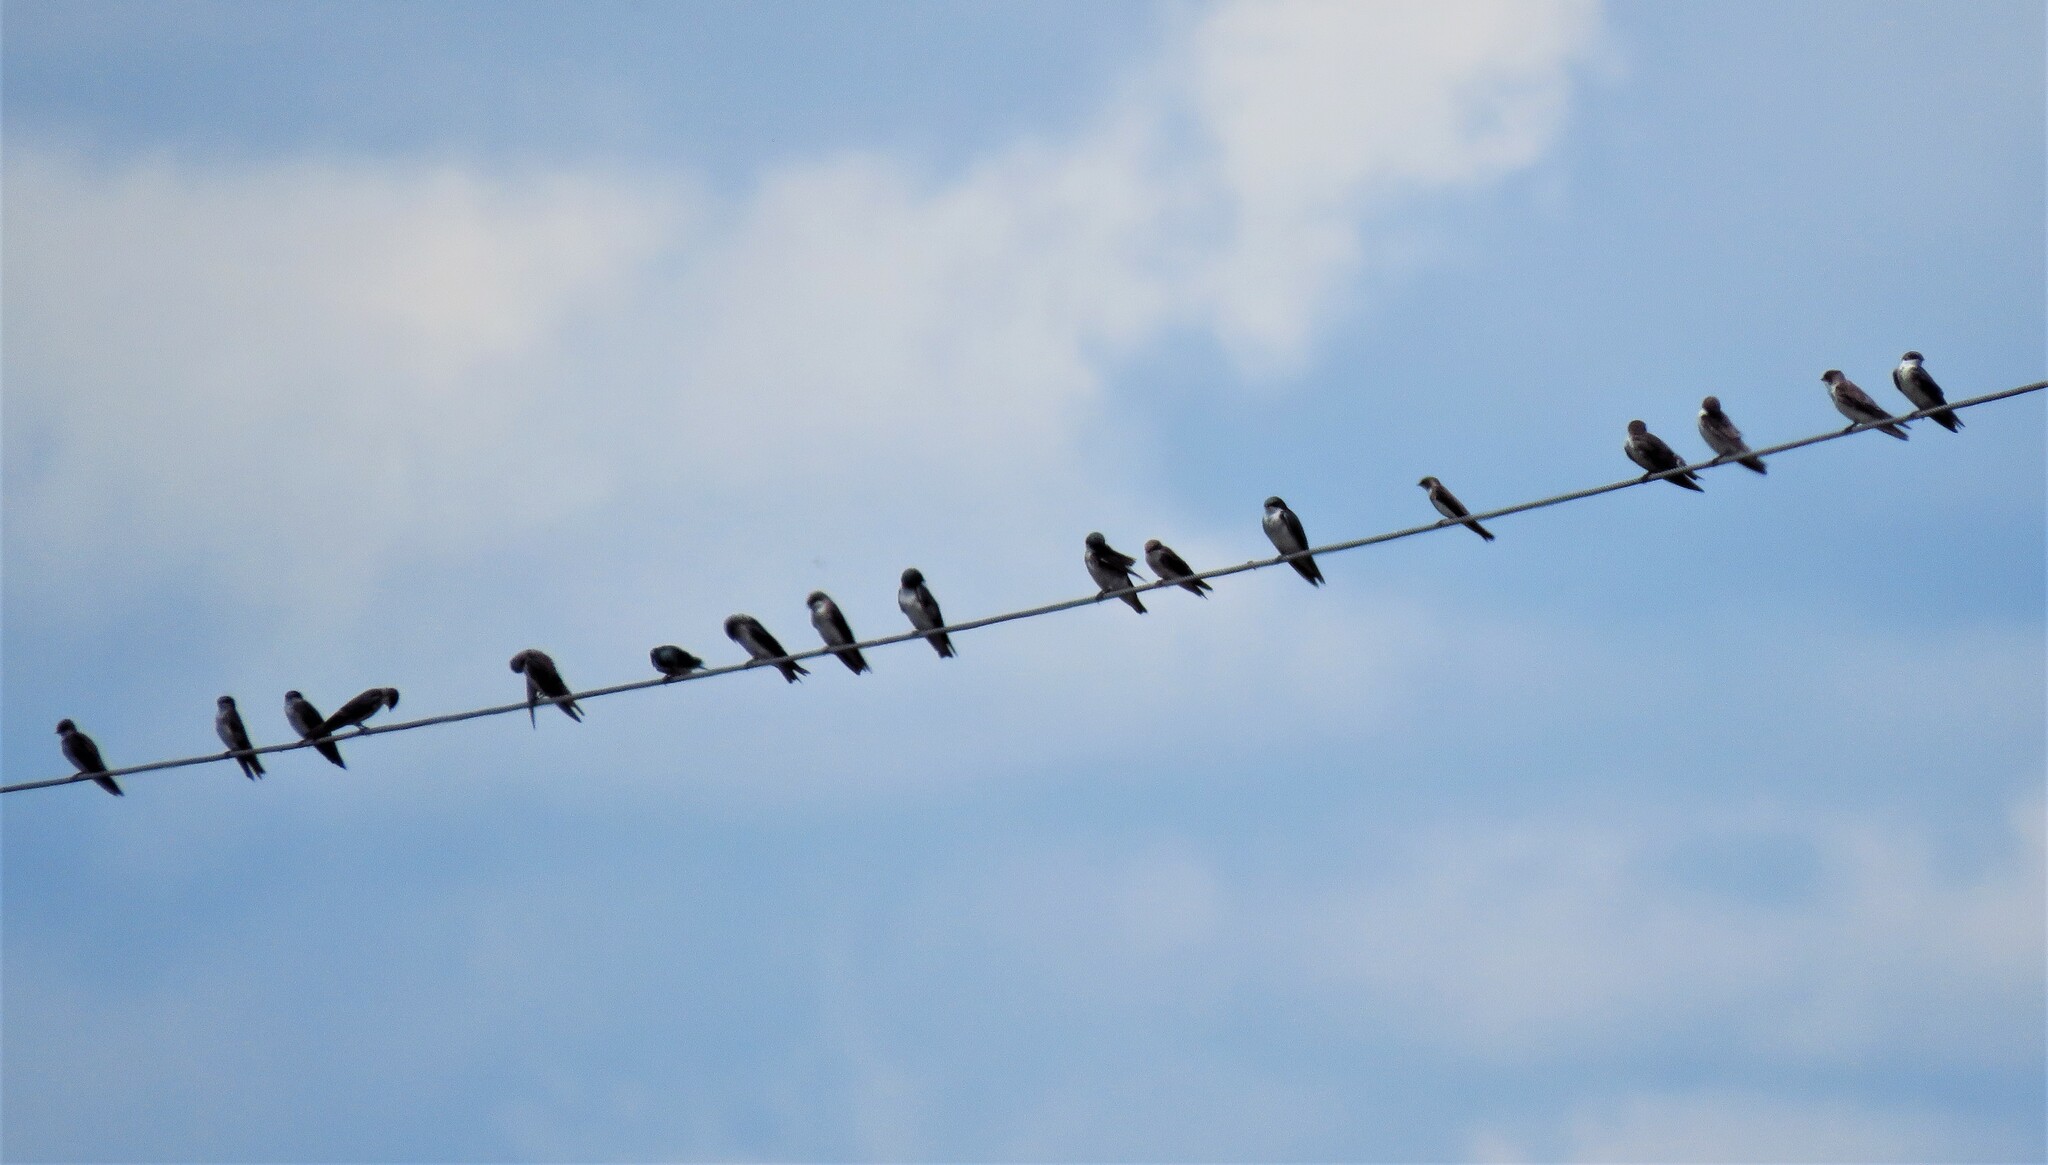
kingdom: Animalia
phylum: Chordata
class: Aves
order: Passeriformes
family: Hirundinidae
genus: Tachycineta
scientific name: Tachycineta bicolor
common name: Tree swallow
